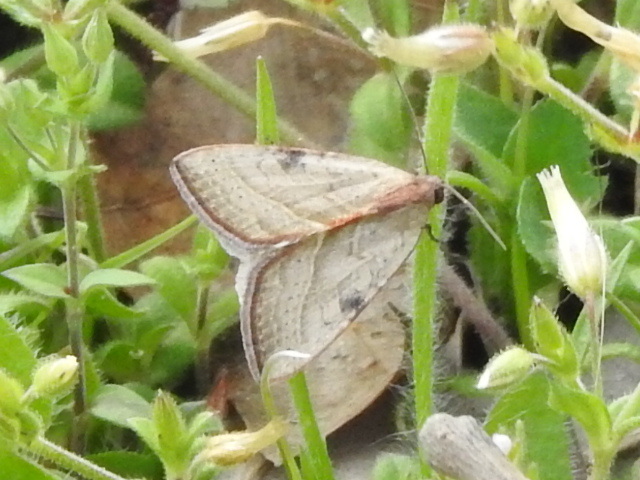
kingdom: Animalia
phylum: Arthropoda
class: Insecta
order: Lepidoptera
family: Noctuidae
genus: Galgula
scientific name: Galgula partita
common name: Wedgeling
